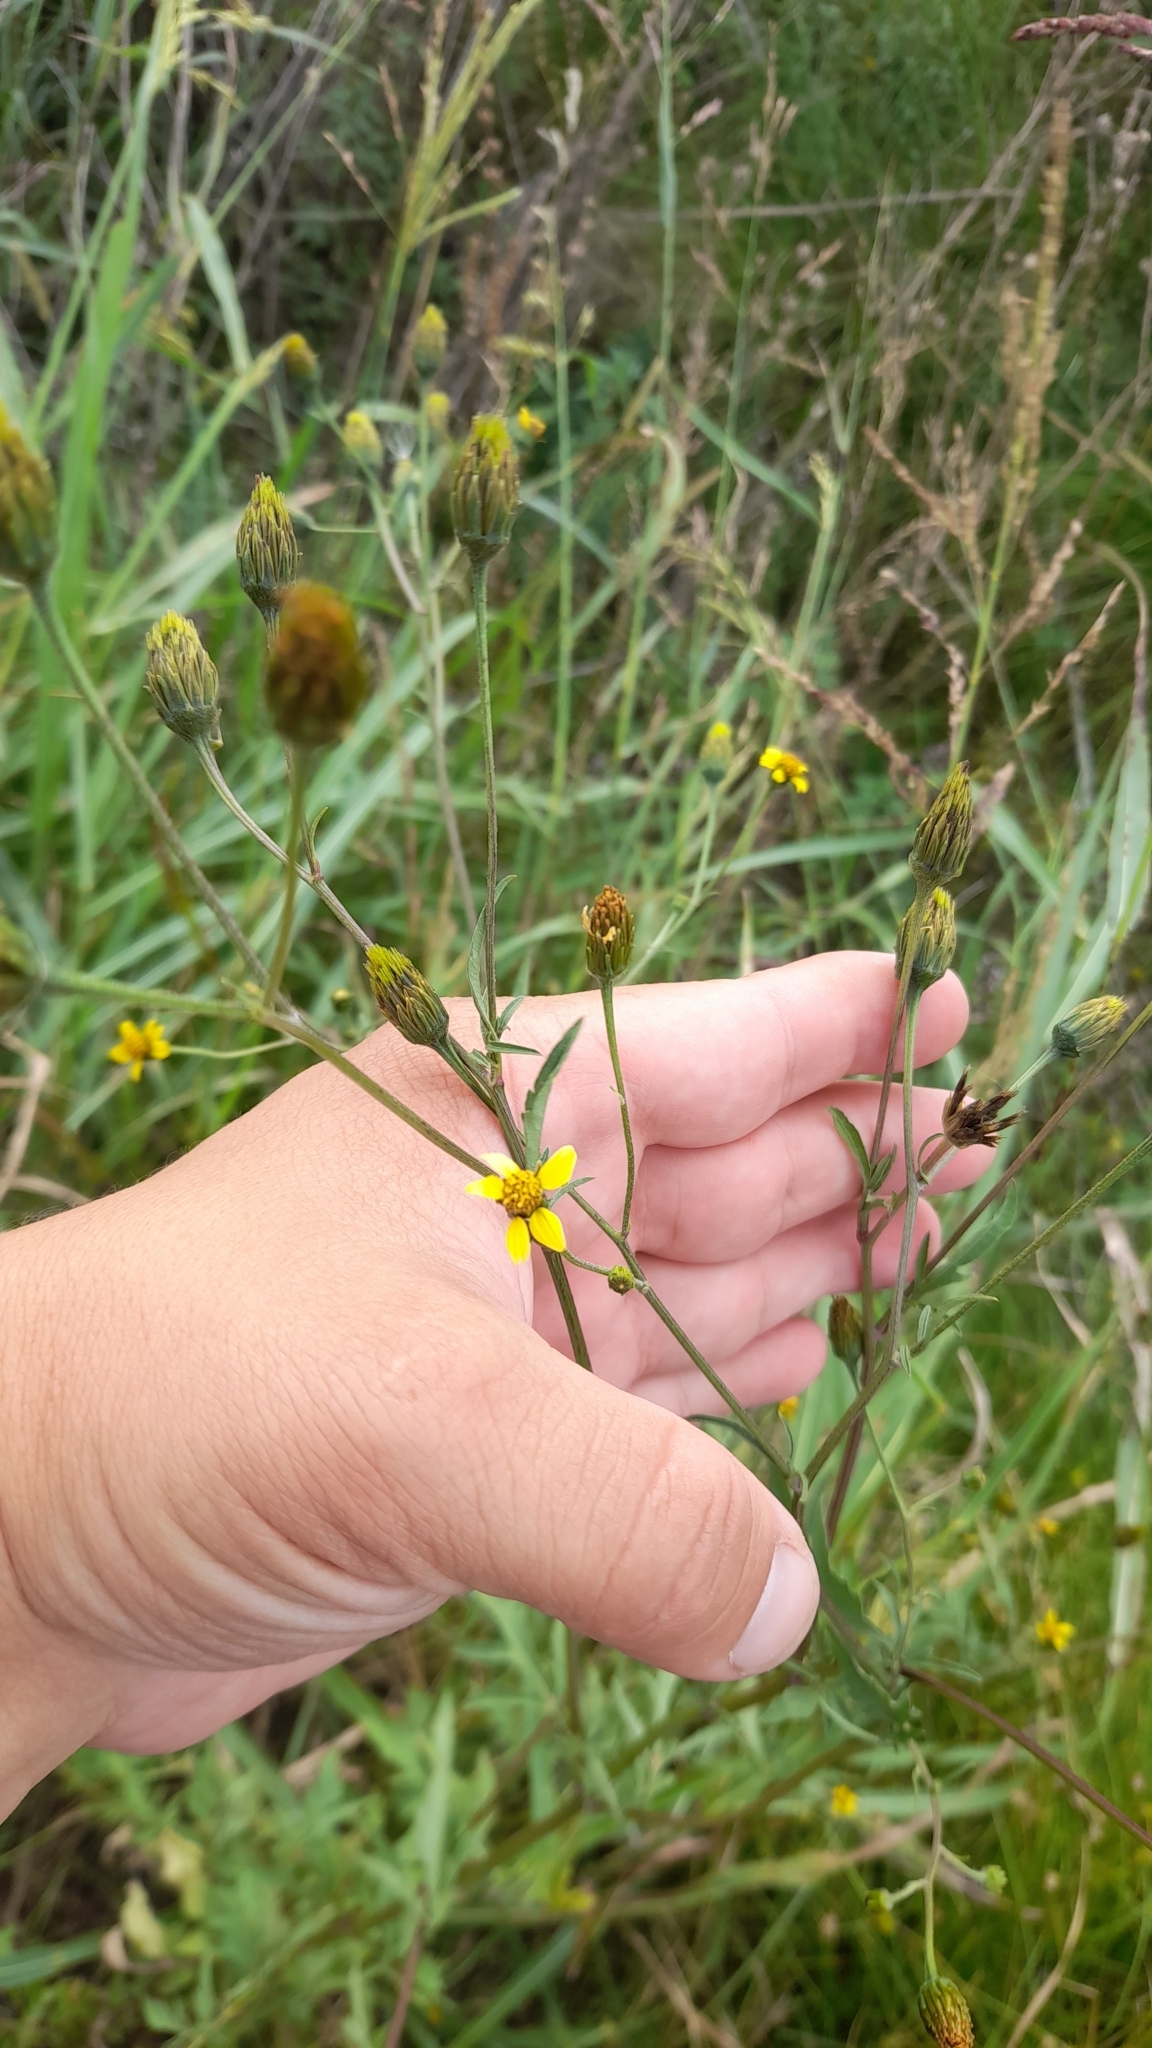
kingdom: Plantae
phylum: Tracheophyta
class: Magnoliopsida
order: Asterales
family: Asteraceae
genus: Bidens
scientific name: Bidens subalternans
